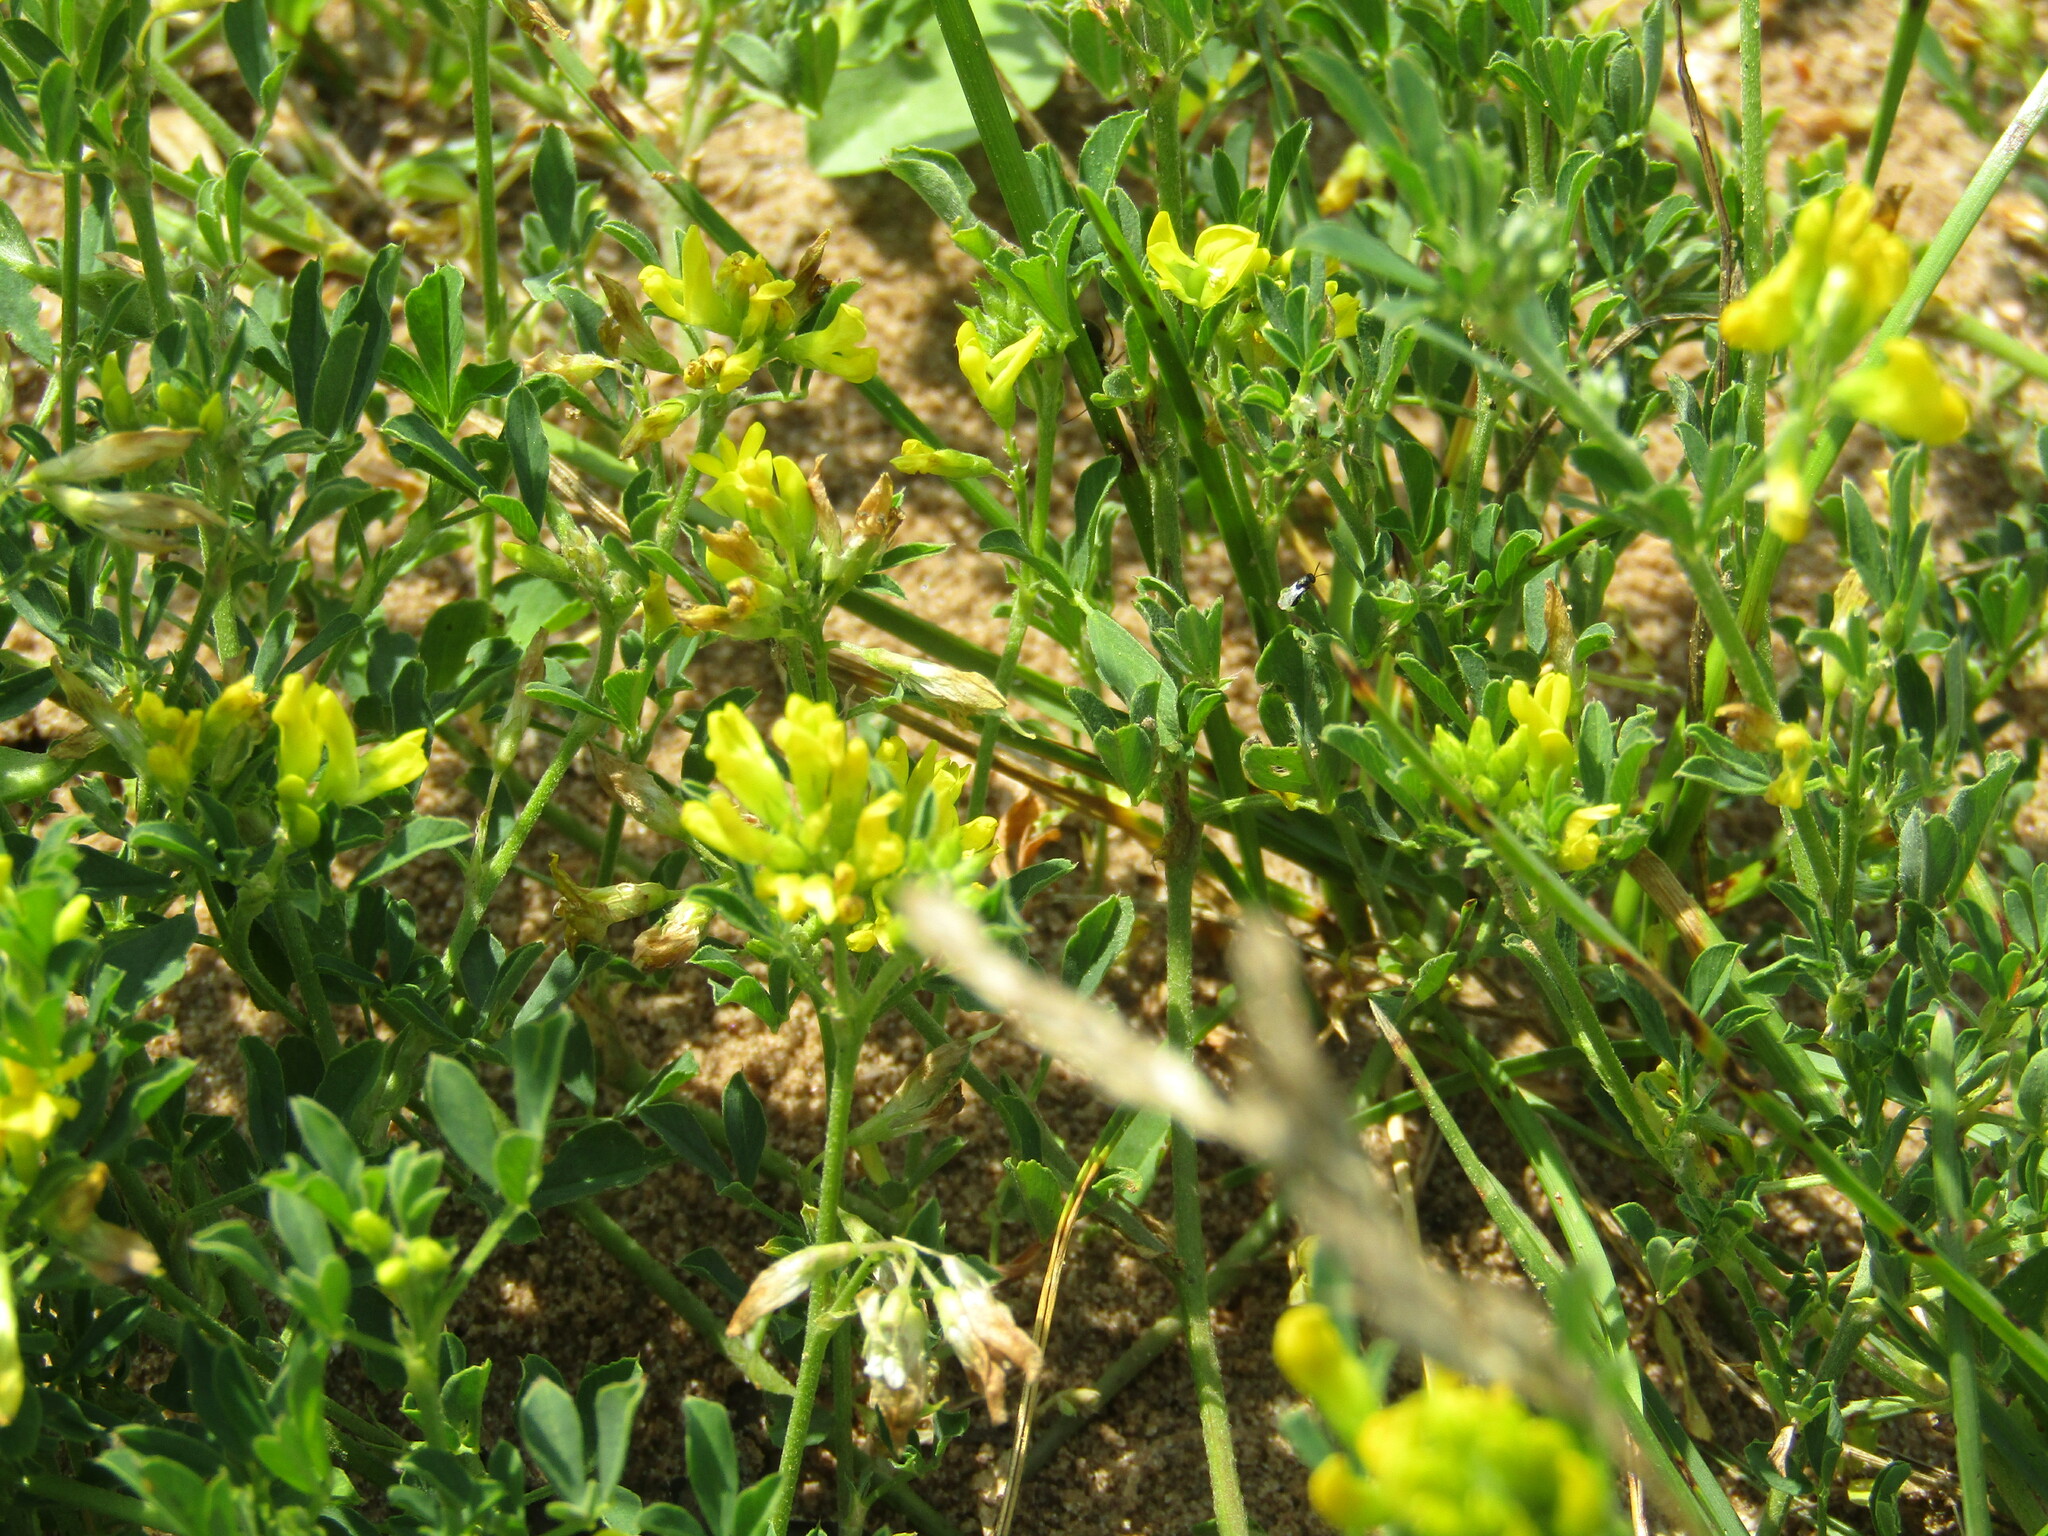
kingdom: Plantae
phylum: Tracheophyta
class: Magnoliopsida
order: Fabales
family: Fabaceae
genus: Medicago
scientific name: Medicago falcata
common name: Sickle medick
